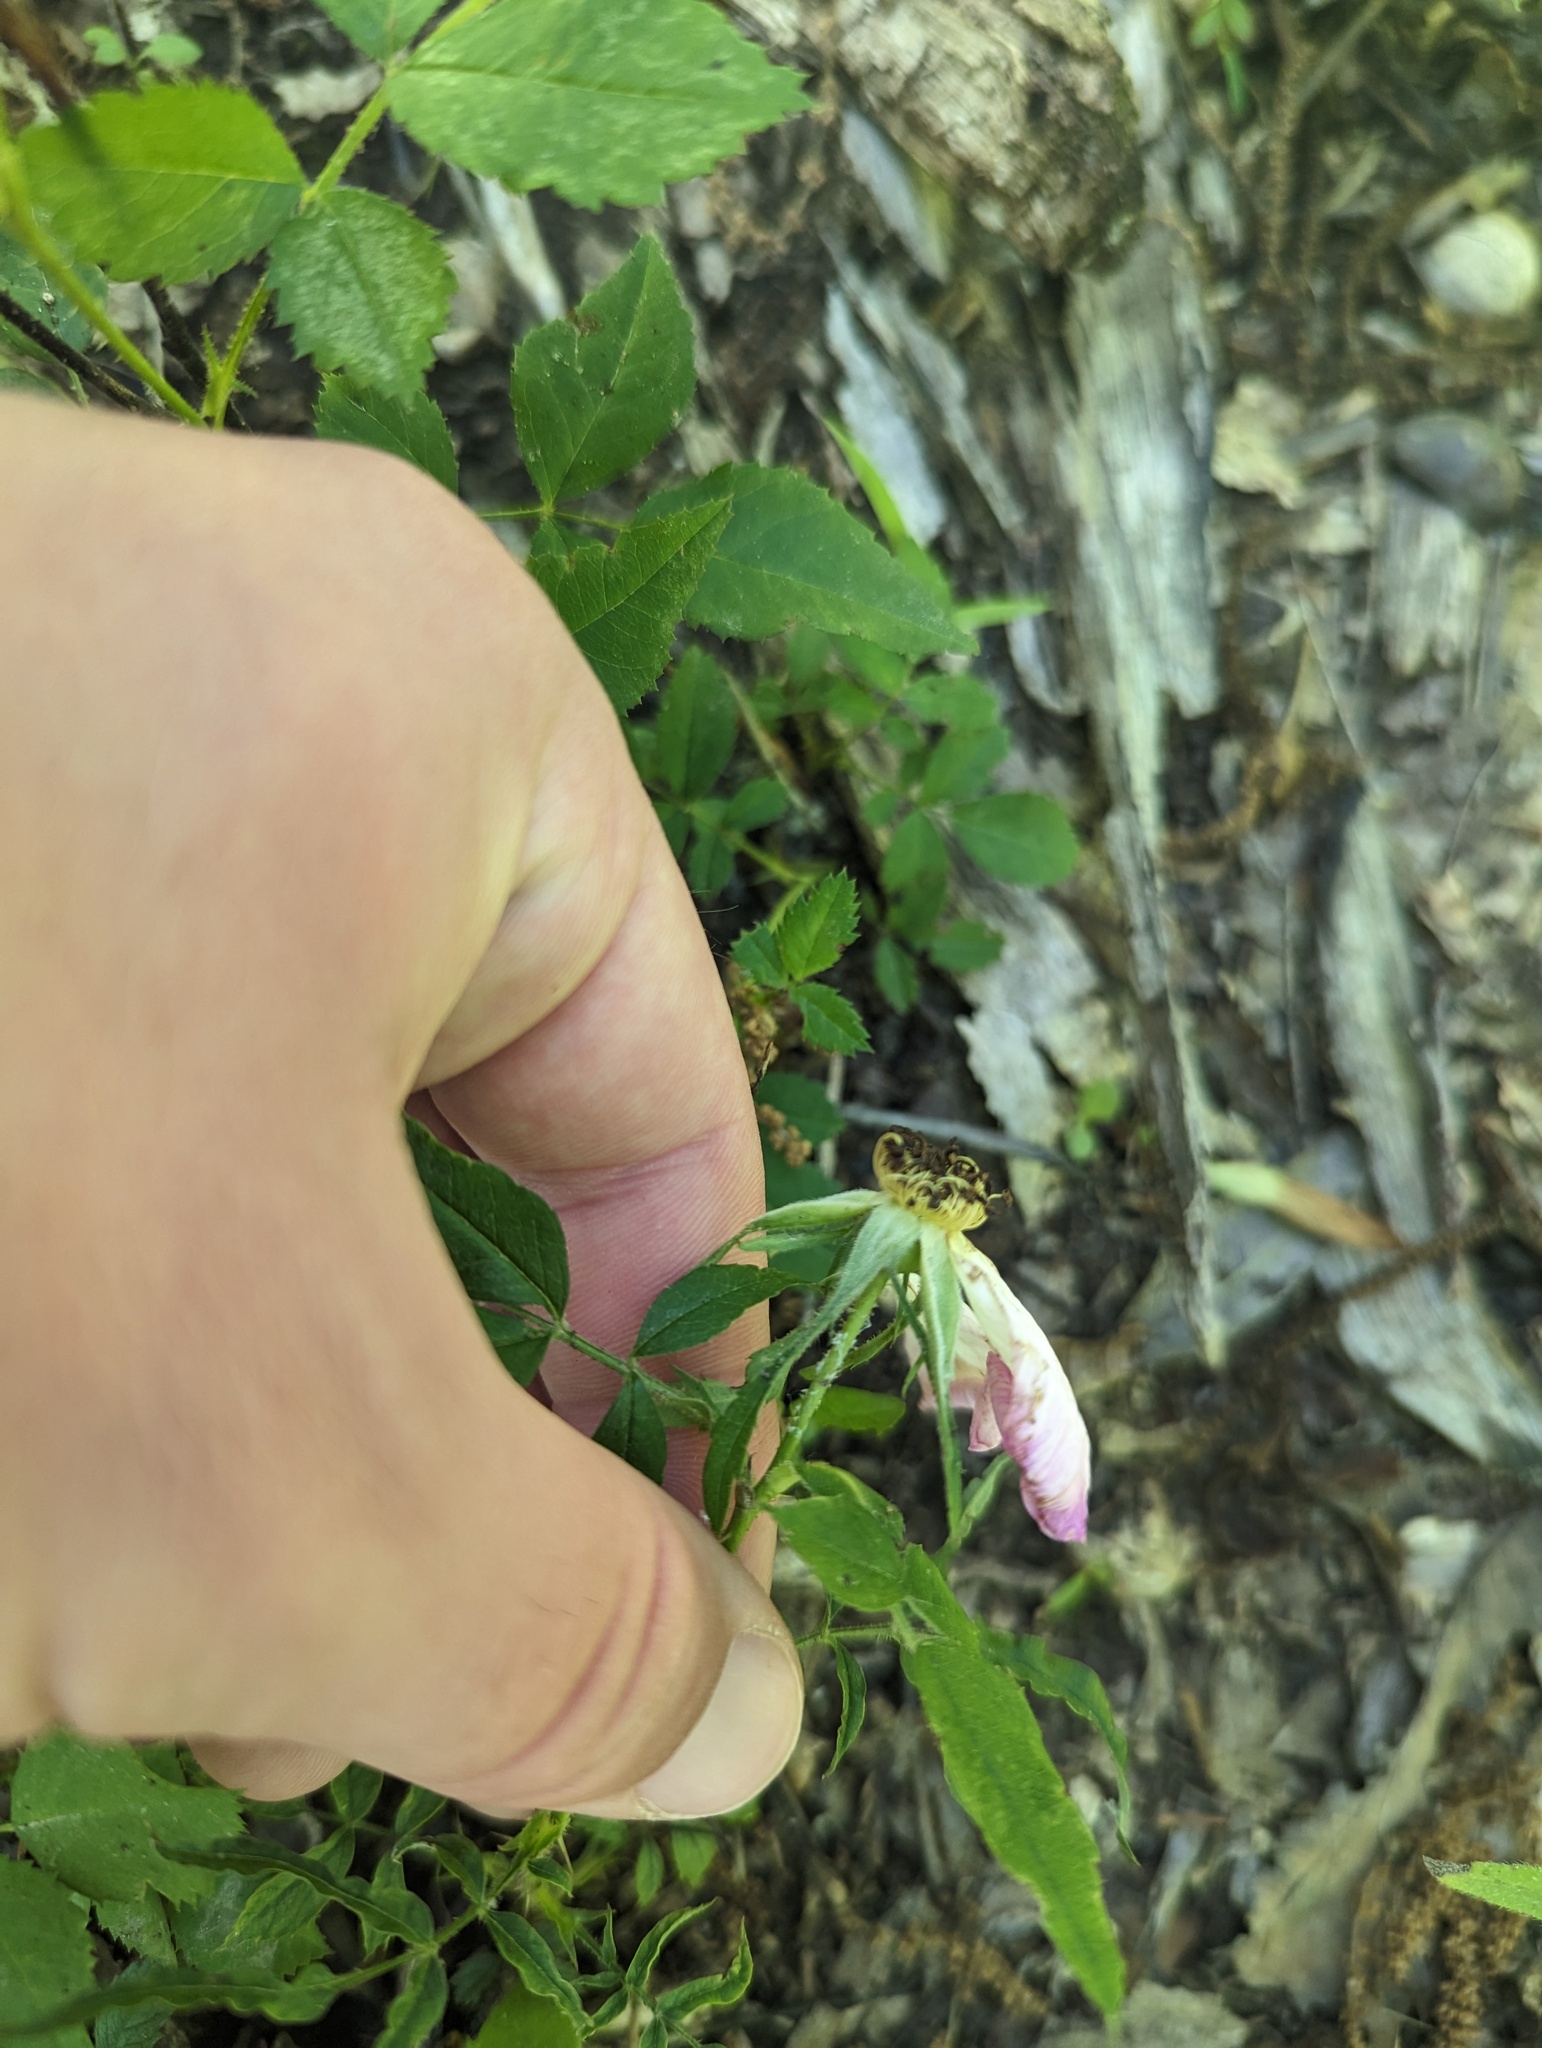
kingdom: Plantae
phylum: Tracheophyta
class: Magnoliopsida
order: Rosales
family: Rosaceae
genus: Rosa
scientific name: Rosa carolina
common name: Pasture rose
